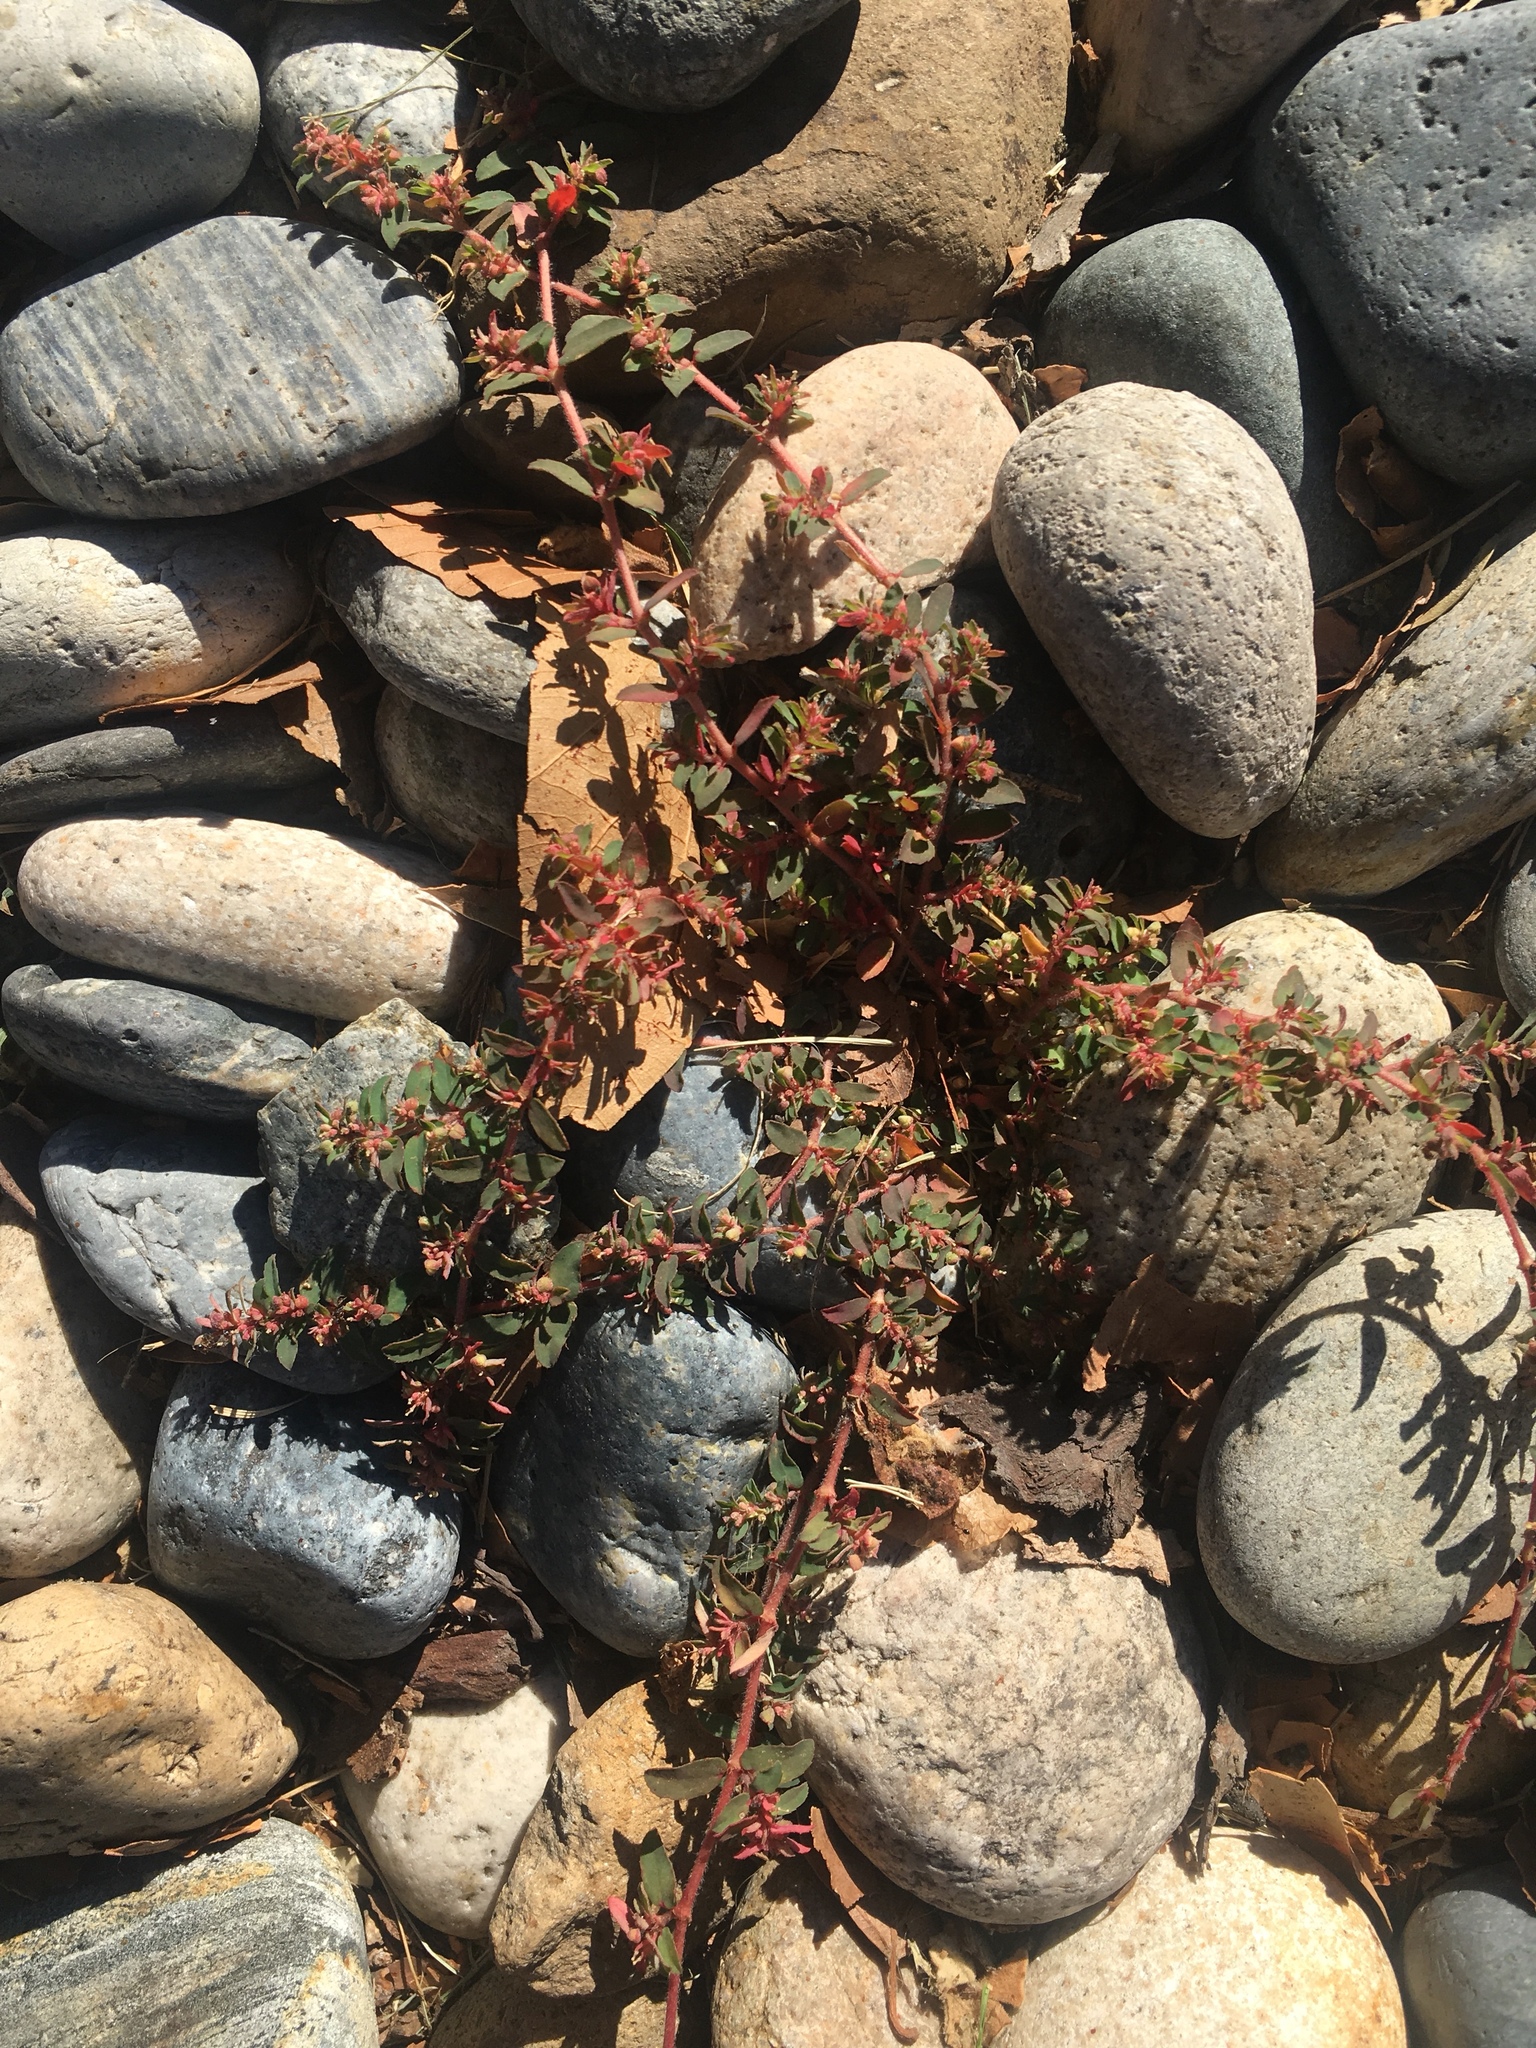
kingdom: Plantae
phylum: Tracheophyta
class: Magnoliopsida
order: Malpighiales
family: Euphorbiaceae
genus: Euphorbia
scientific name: Euphorbia maculata
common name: Spotted spurge
